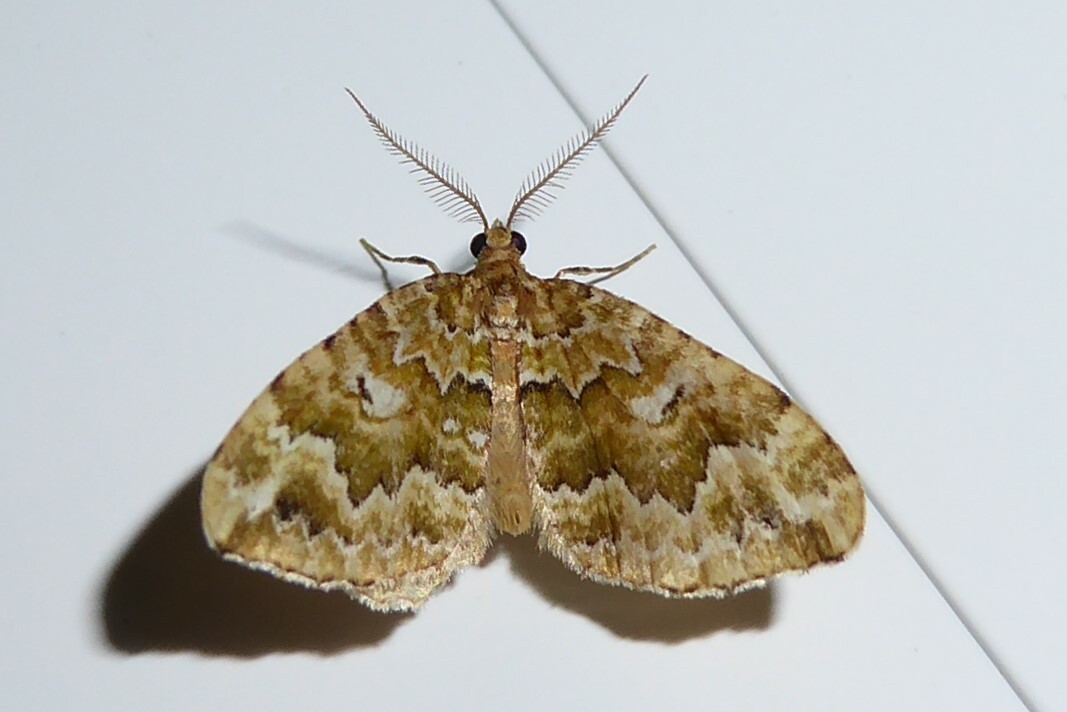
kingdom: Animalia
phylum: Arthropoda
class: Insecta
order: Lepidoptera
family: Geometridae
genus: Asaphodes
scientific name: Asaphodes beata
